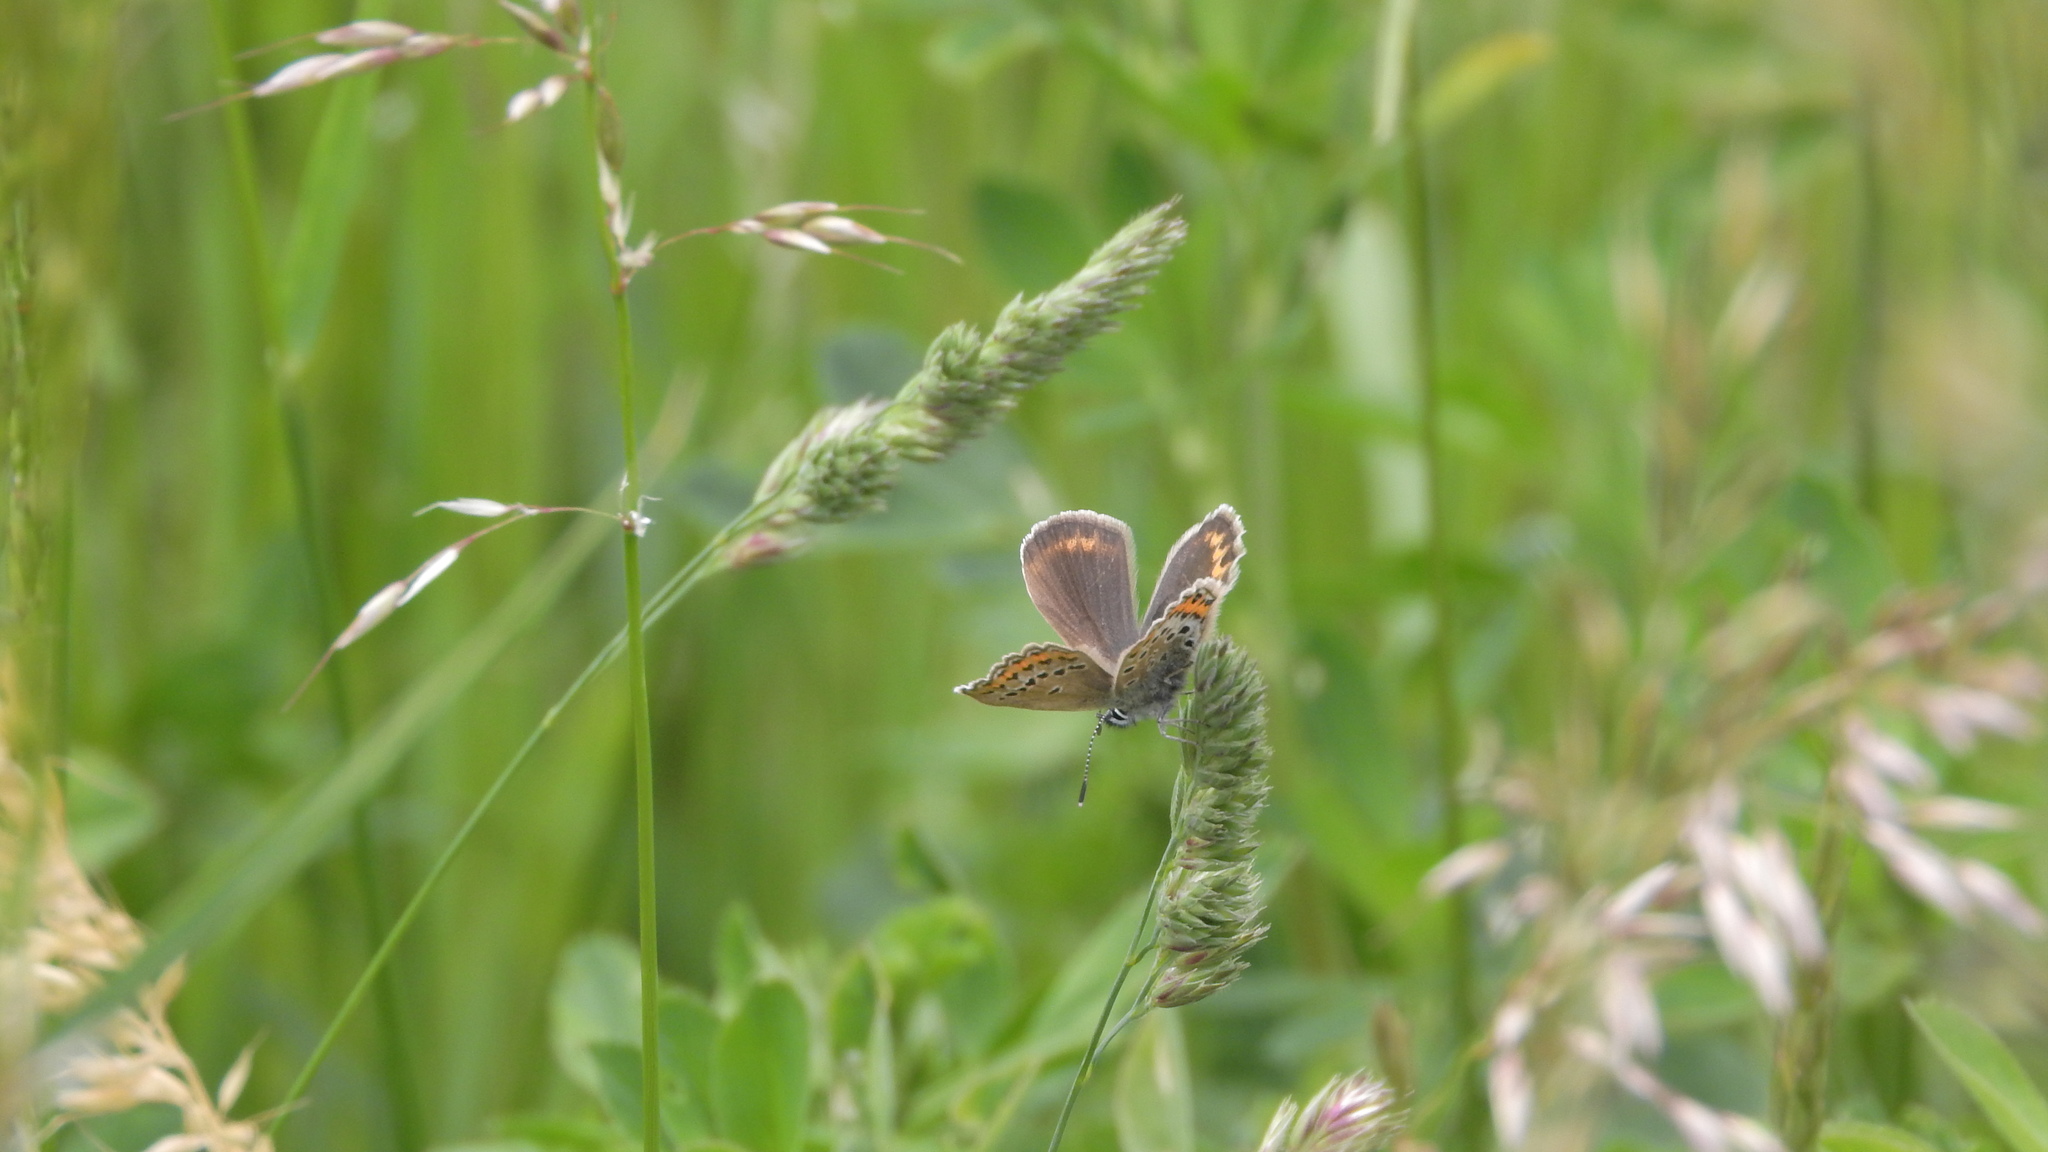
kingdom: Animalia
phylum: Arthropoda
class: Insecta
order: Lepidoptera
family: Lycaenidae
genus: Plebejus
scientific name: Plebejus argus
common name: Silver-studded blue
